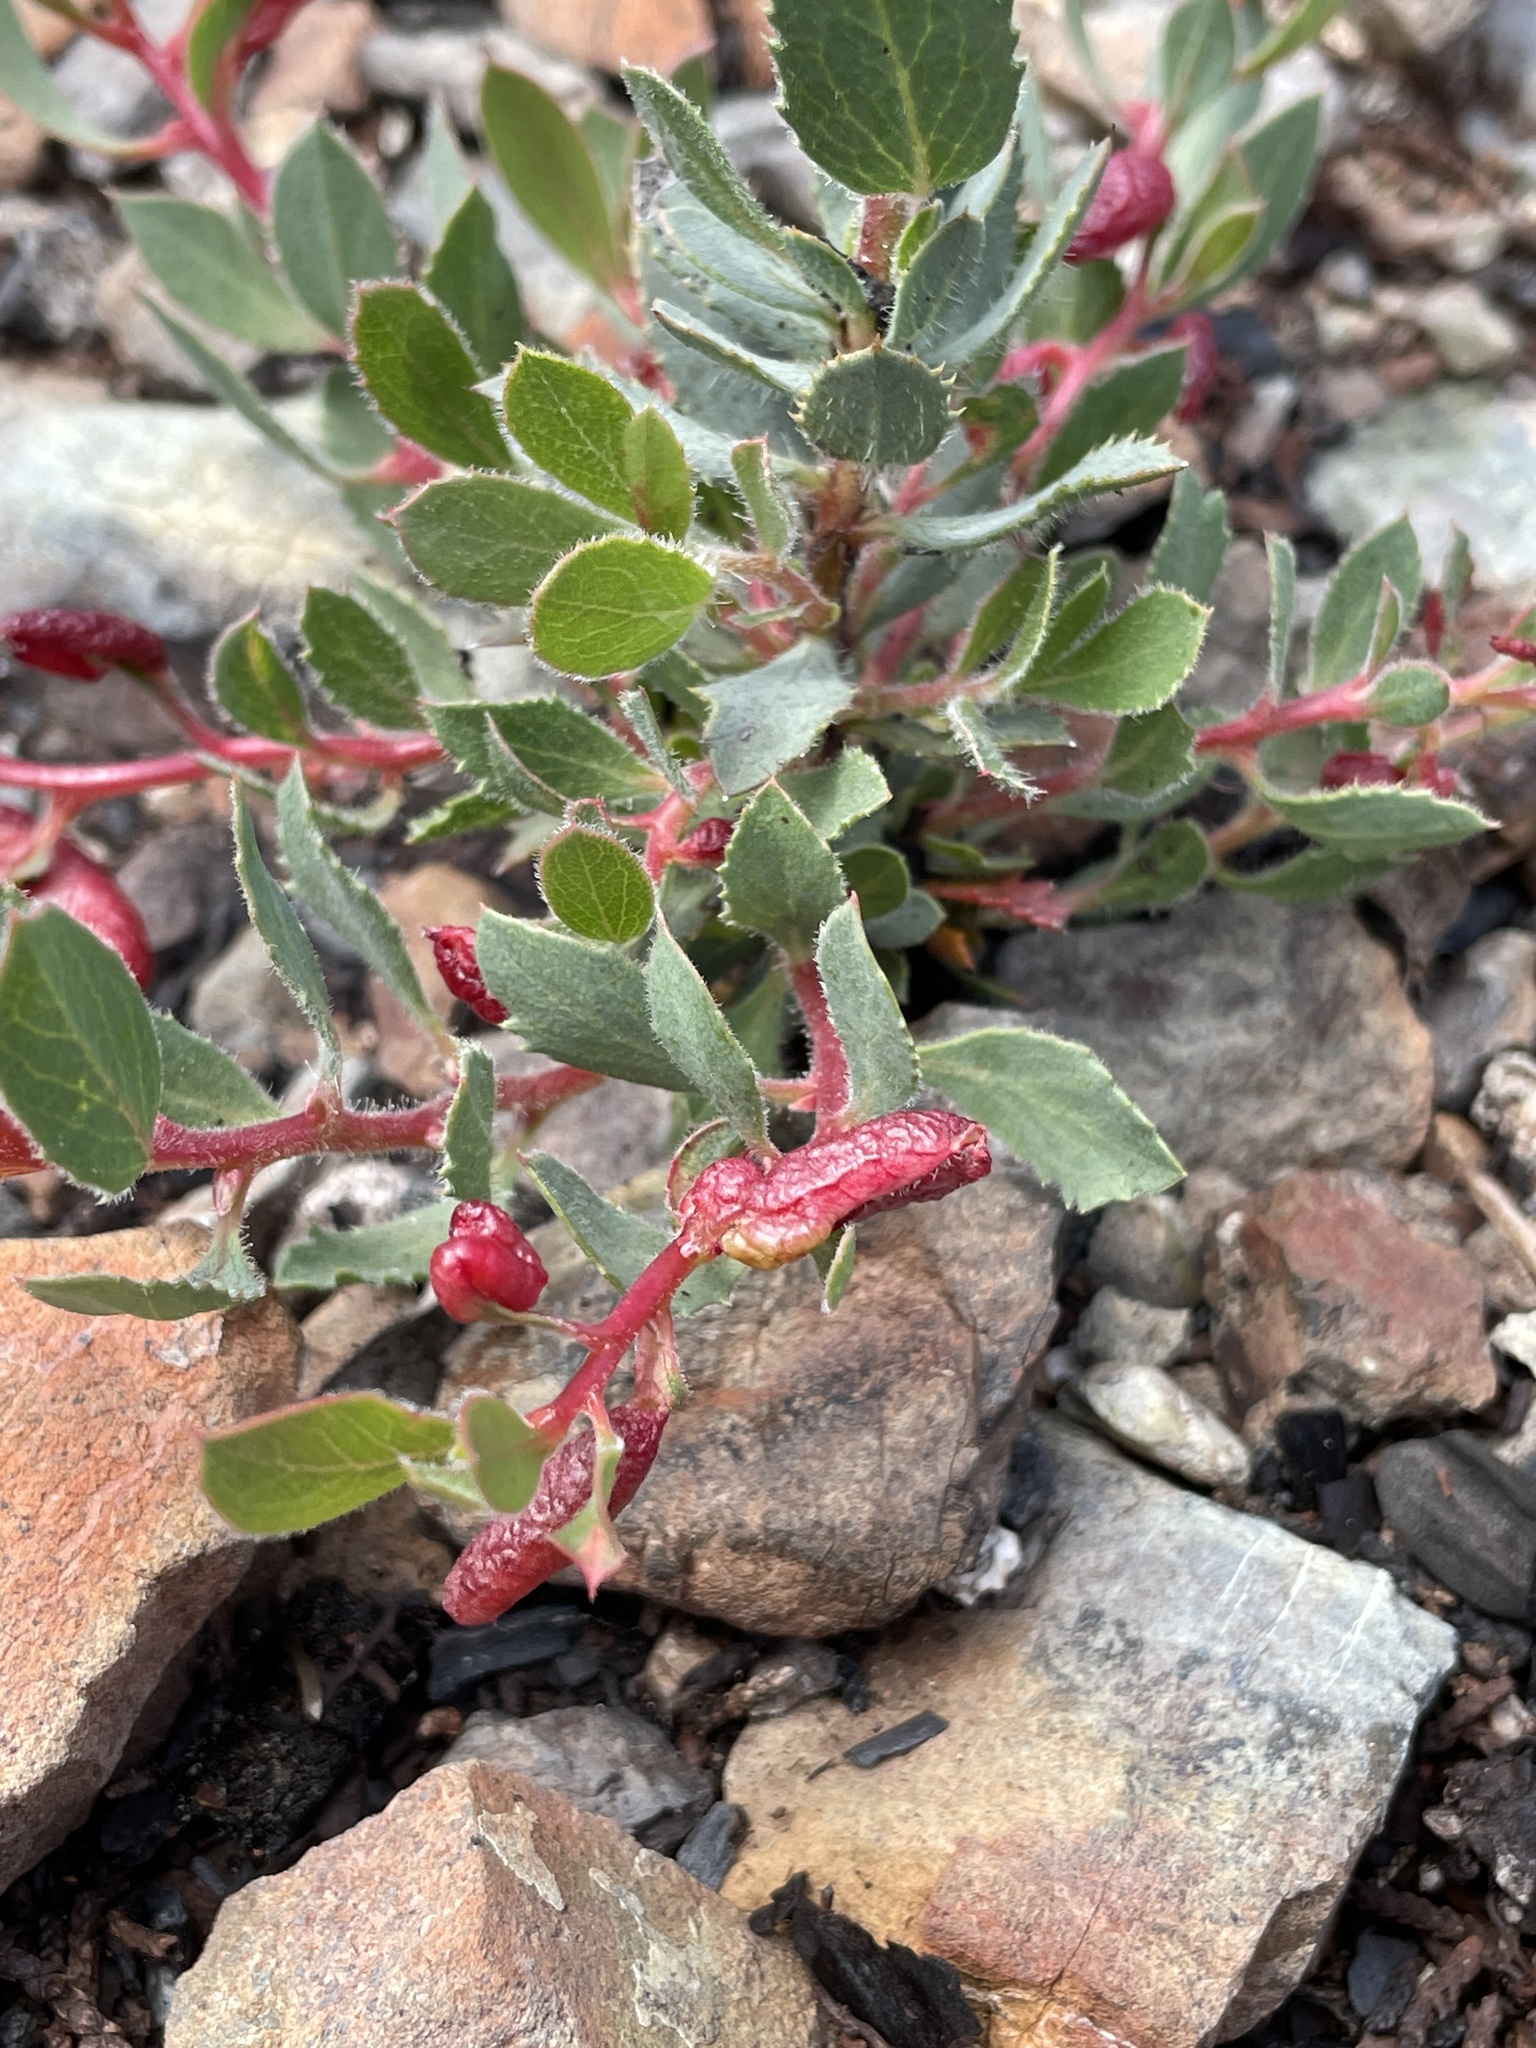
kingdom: Plantae
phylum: Tracheophyta
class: Magnoliopsida
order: Ericales
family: Ericaceae
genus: Arctostaphylos
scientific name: Arctostaphylos viscida
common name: White-leaf manzanita
